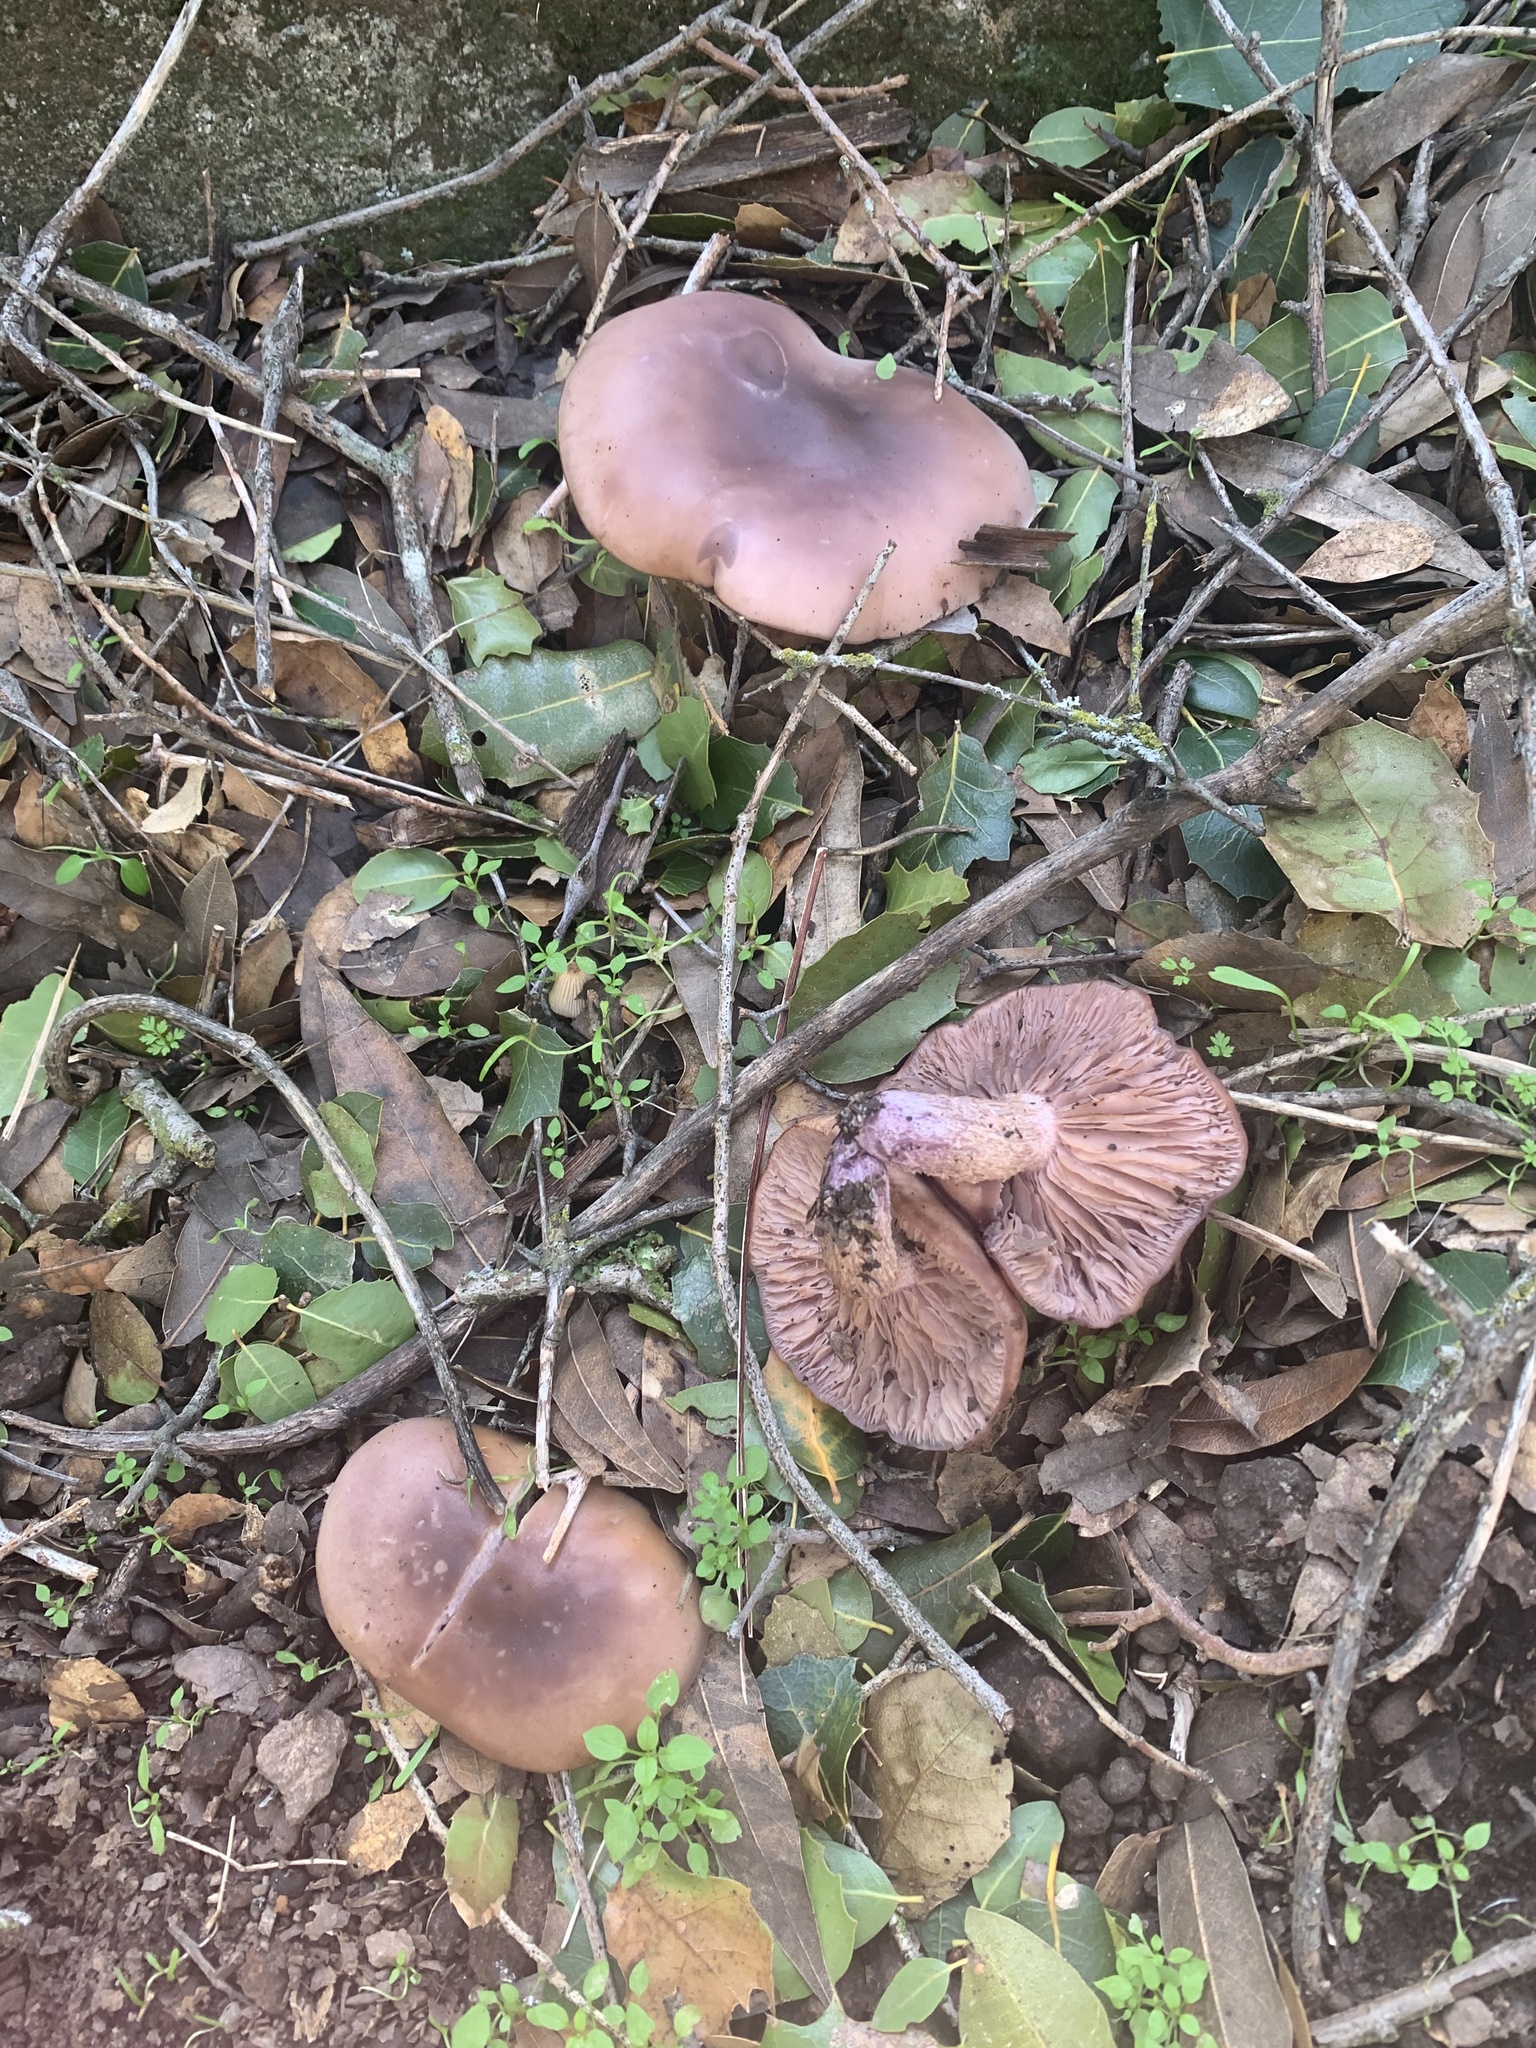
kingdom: Fungi
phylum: Basidiomycota
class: Agaricomycetes
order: Agaricales
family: Tricholomataceae
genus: Collybia
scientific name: Collybia
